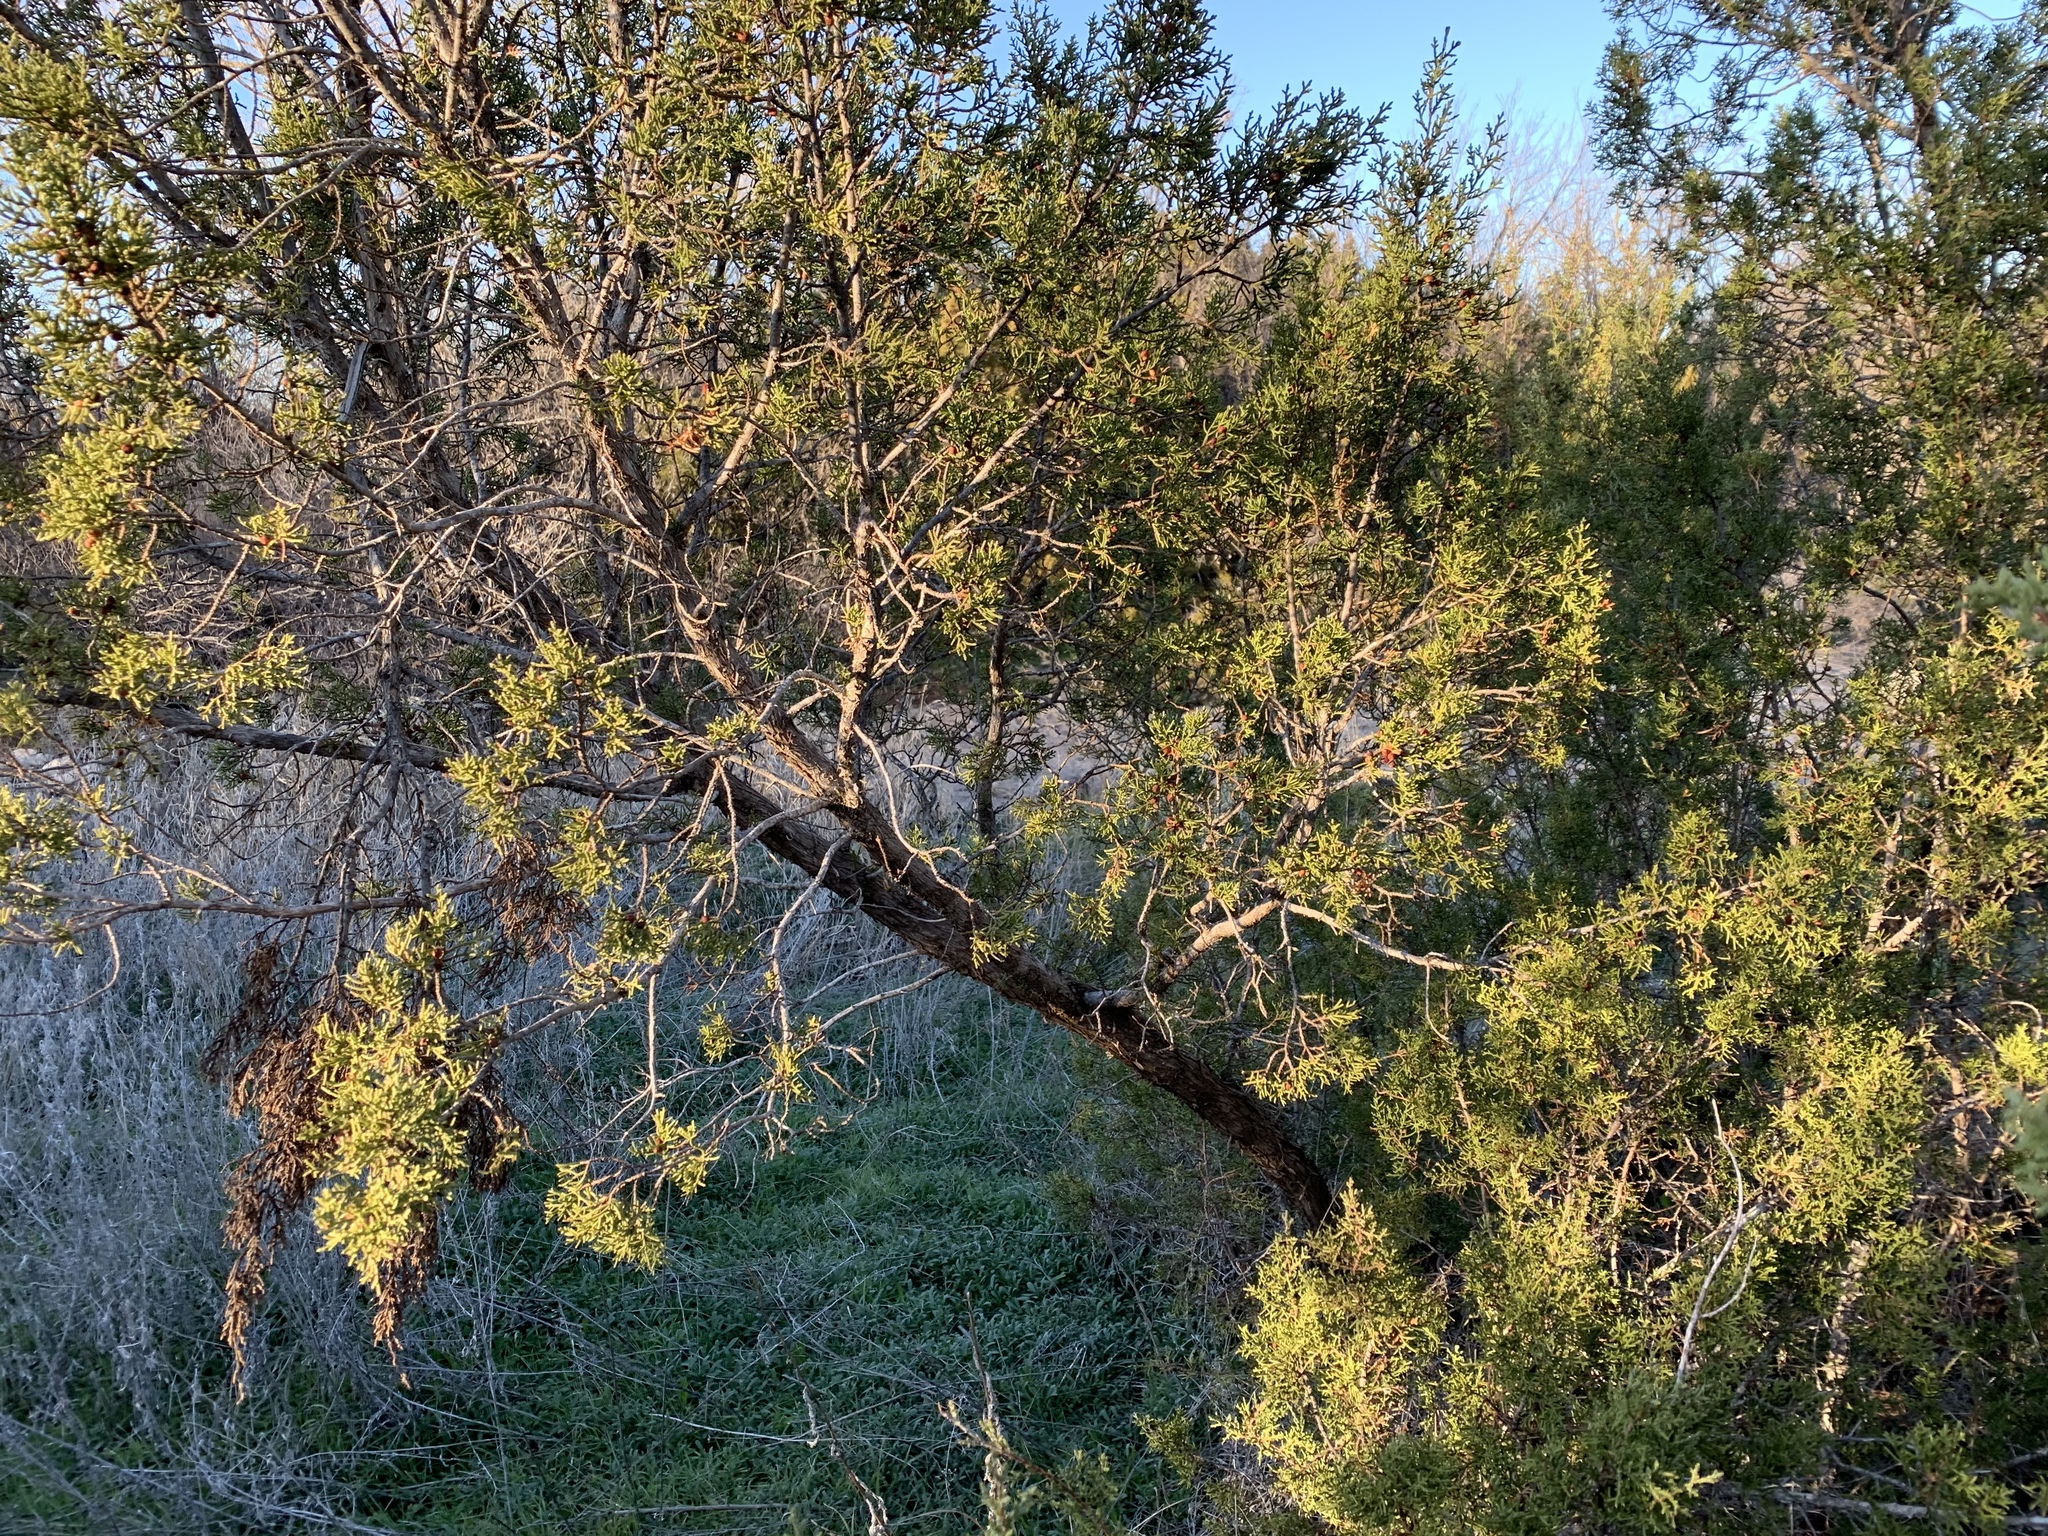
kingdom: Plantae
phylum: Tracheophyta
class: Pinopsida
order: Pinales
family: Cupressaceae
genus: Juniperus
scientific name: Juniperus pinchotii
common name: Pinchot juniper
